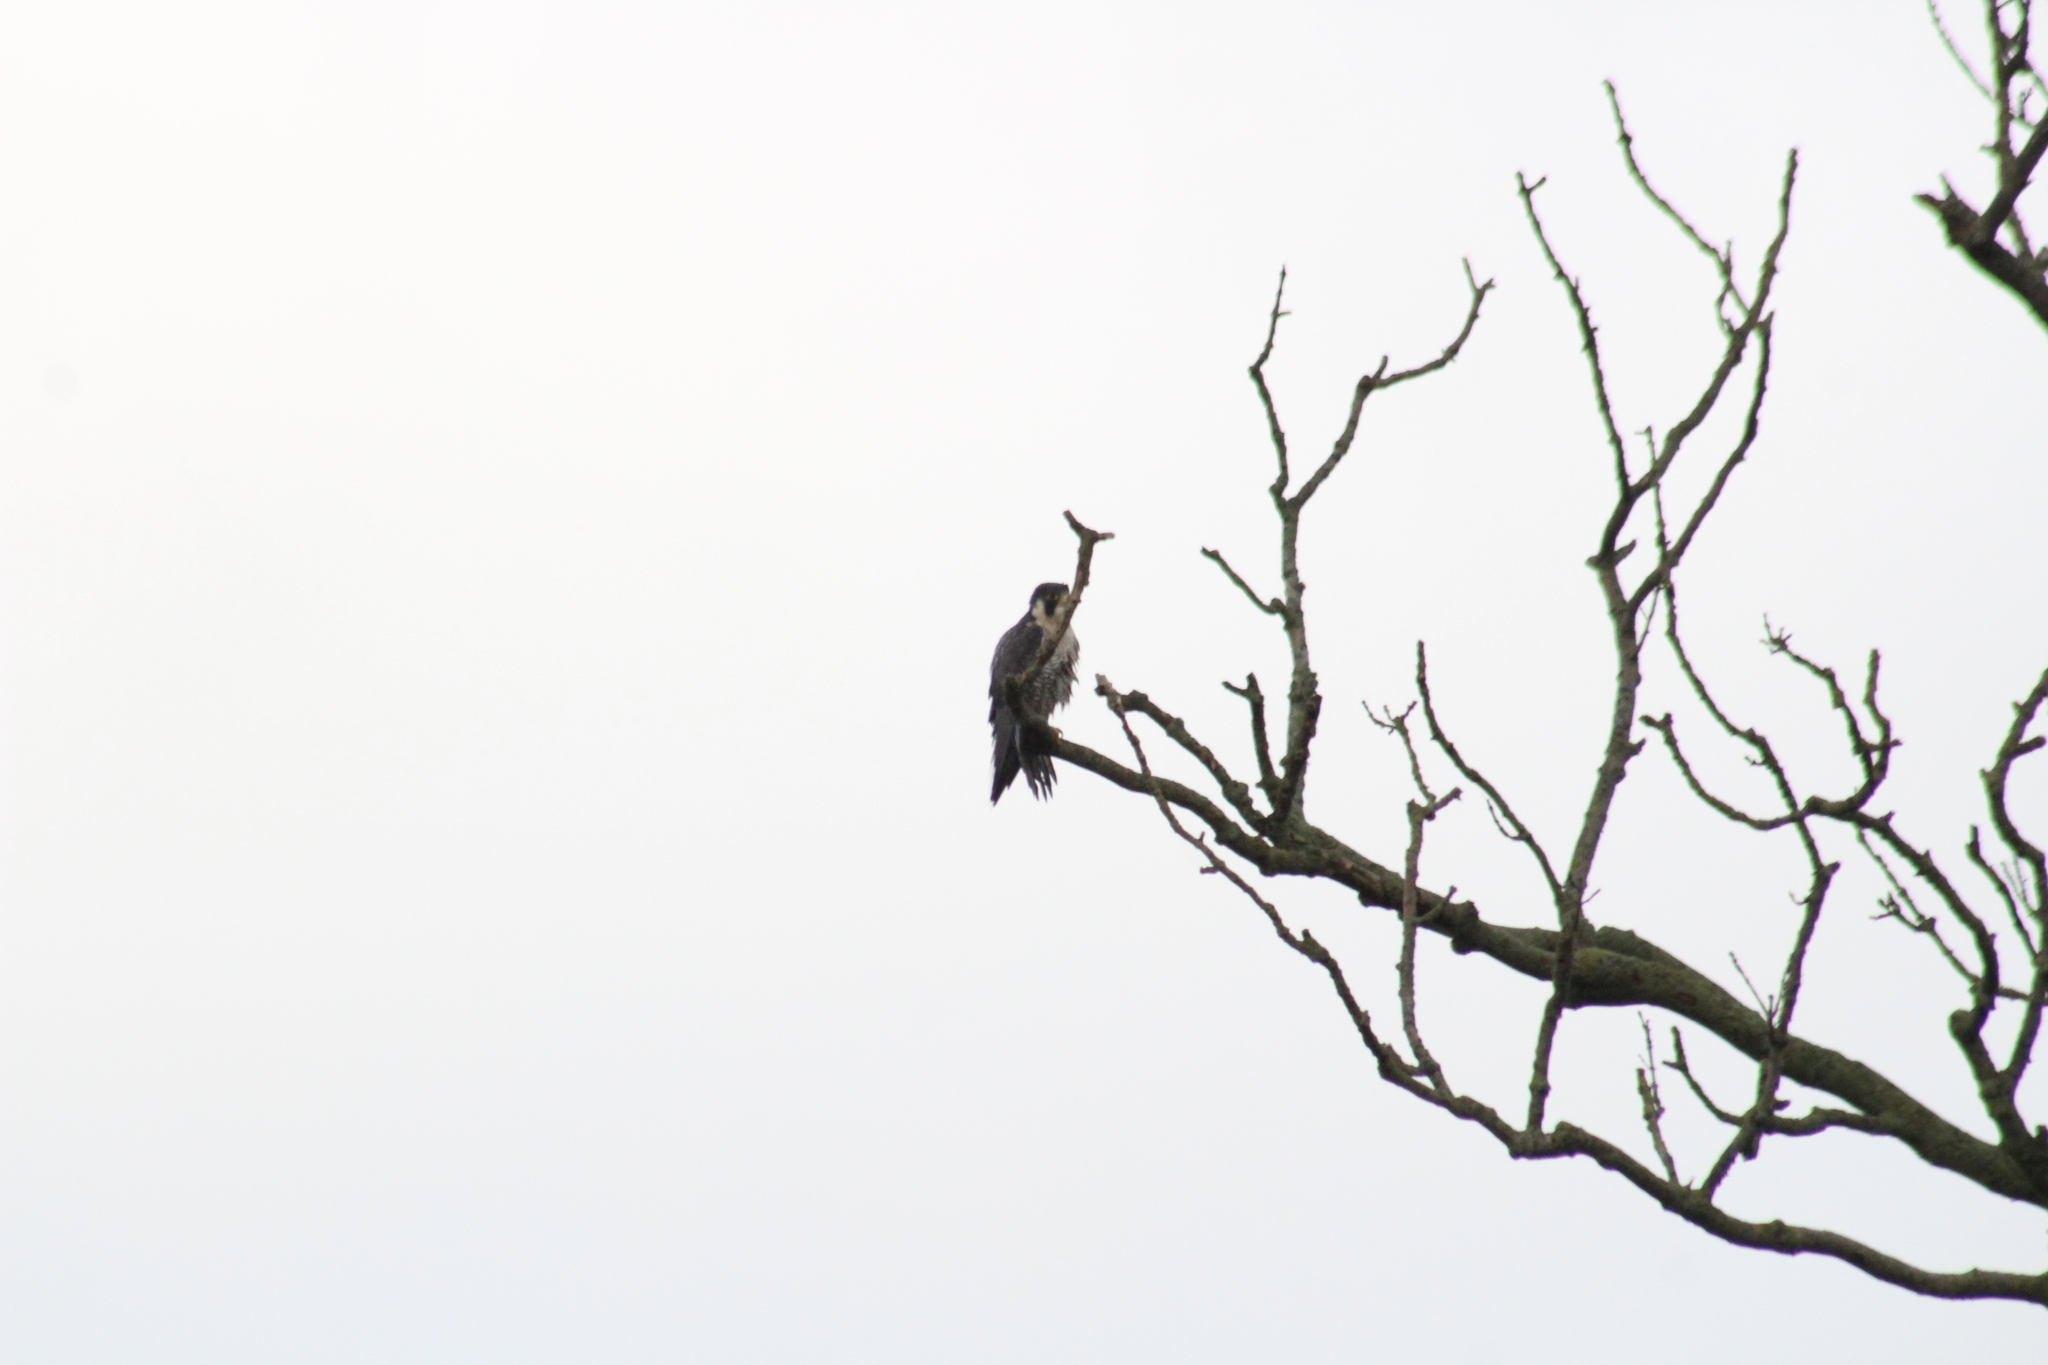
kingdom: Animalia
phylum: Chordata
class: Aves
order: Falconiformes
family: Falconidae
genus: Falco
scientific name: Falco peregrinus
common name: Peregrine falcon
